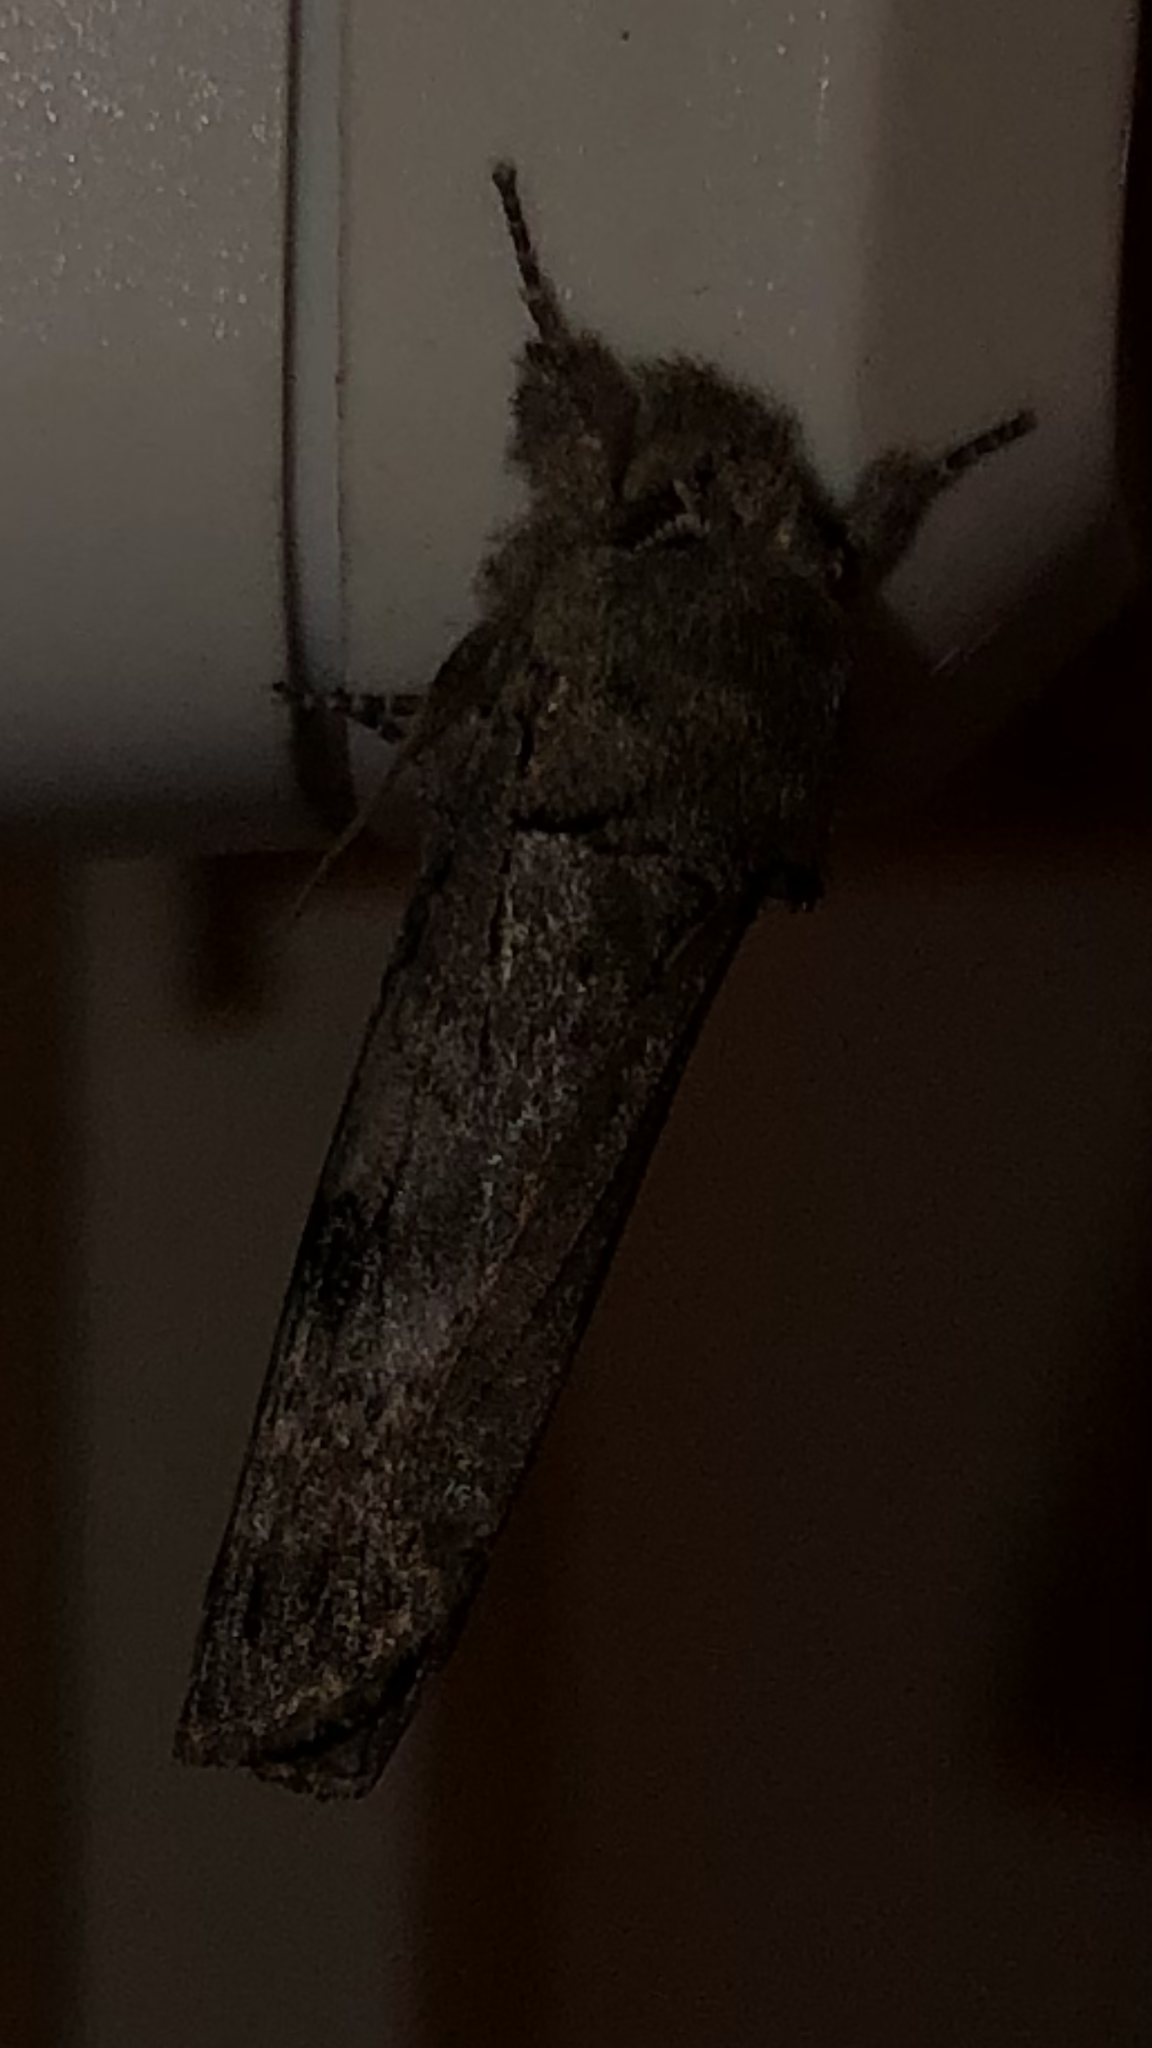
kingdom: Animalia
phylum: Arthropoda
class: Insecta
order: Lepidoptera
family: Notodontidae
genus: Schizura
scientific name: Schizura
